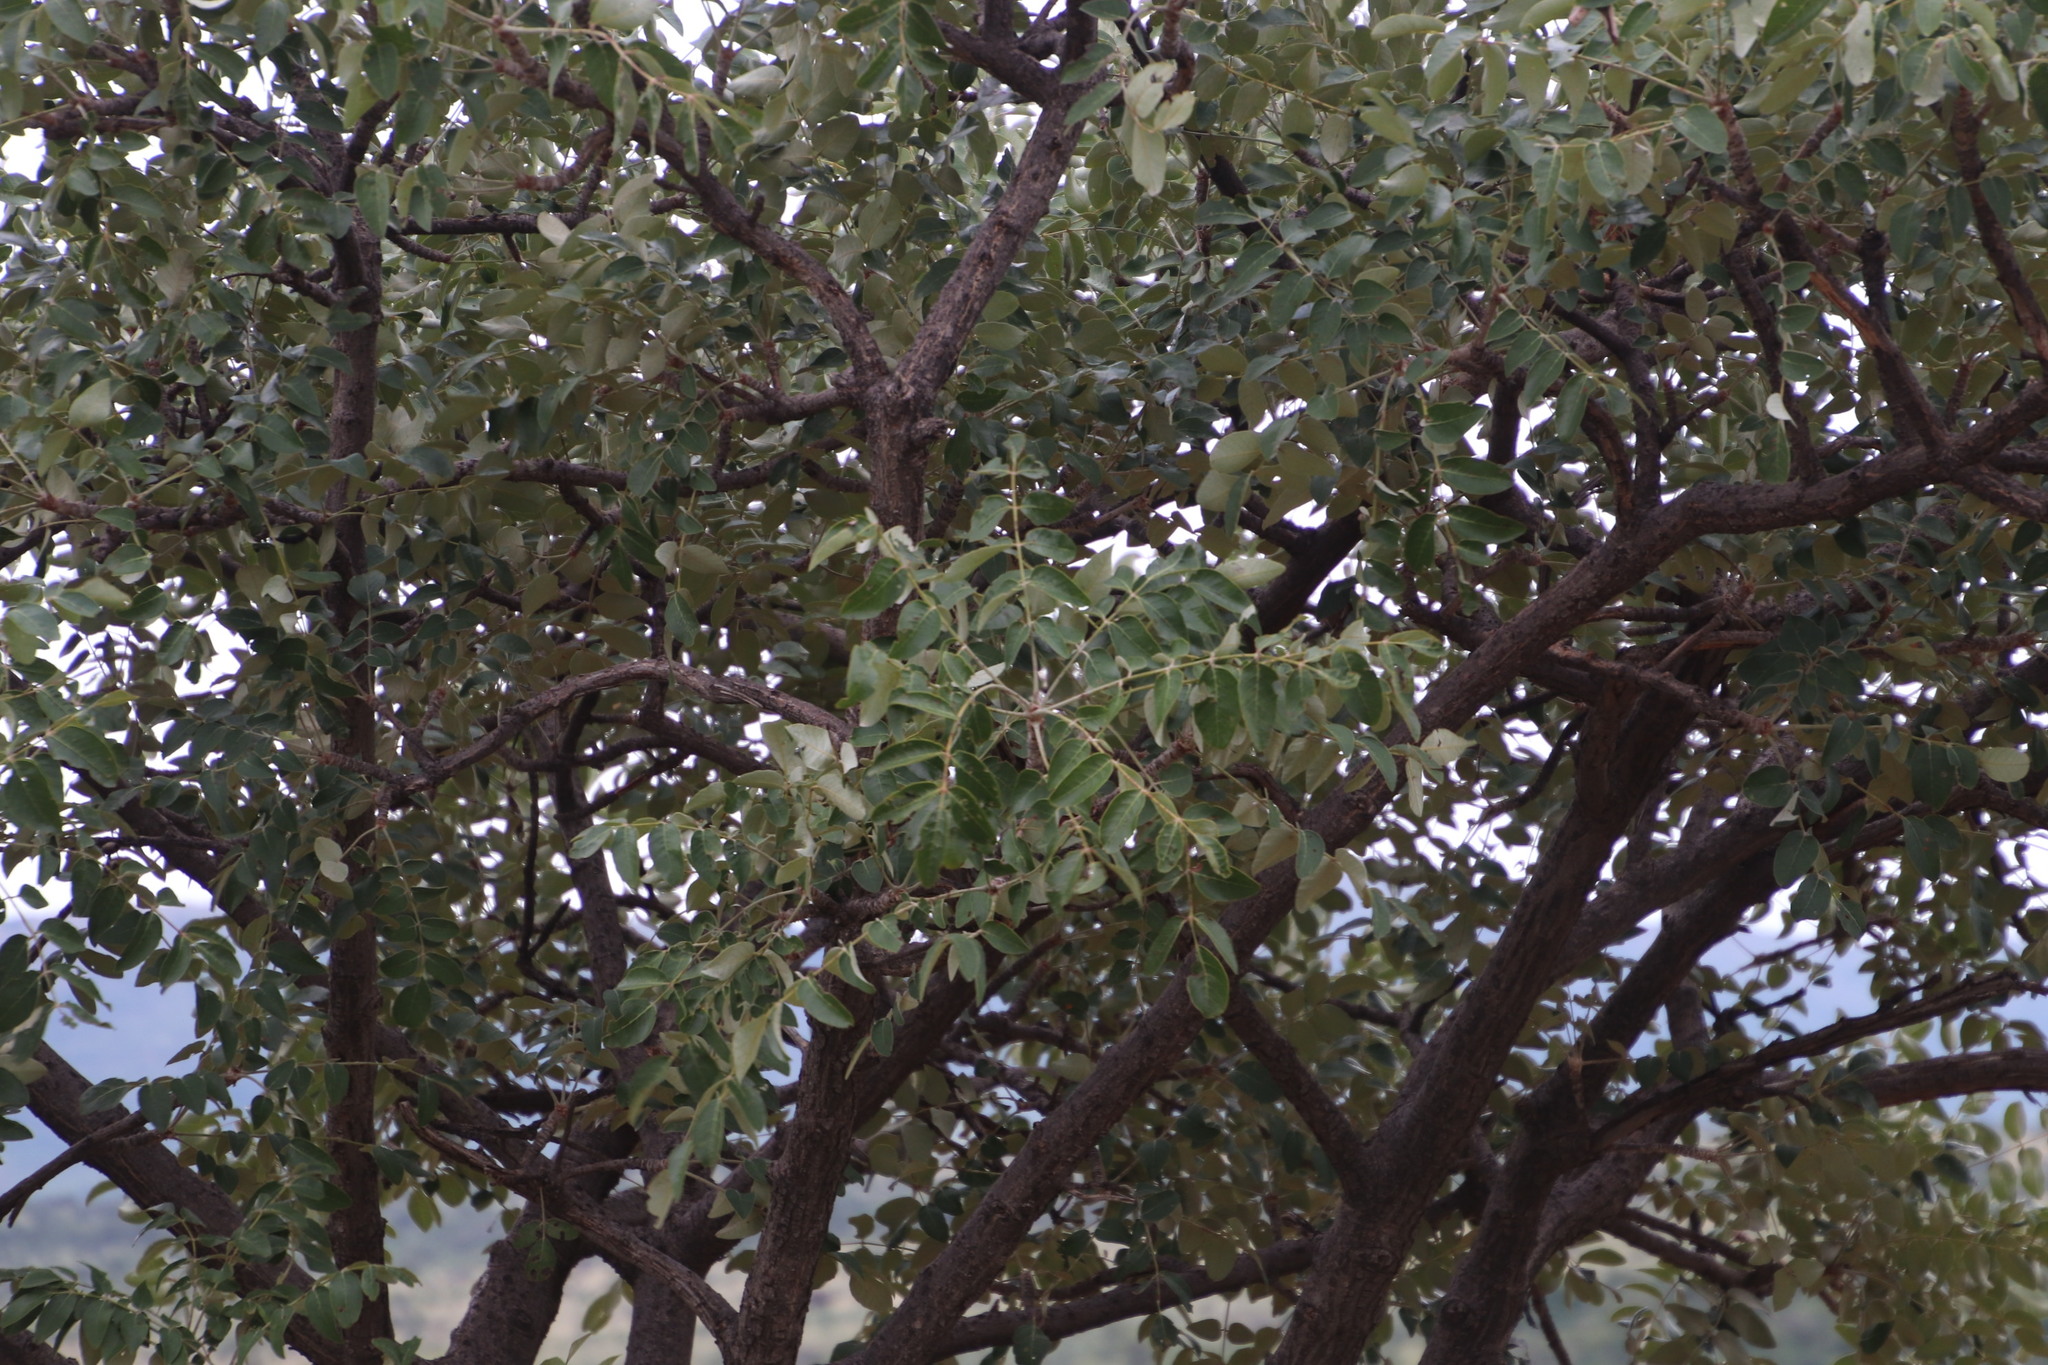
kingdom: Plantae
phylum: Tracheophyta
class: Magnoliopsida
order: Sapindales
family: Anacardiaceae
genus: Lannea
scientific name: Lannea discolor
